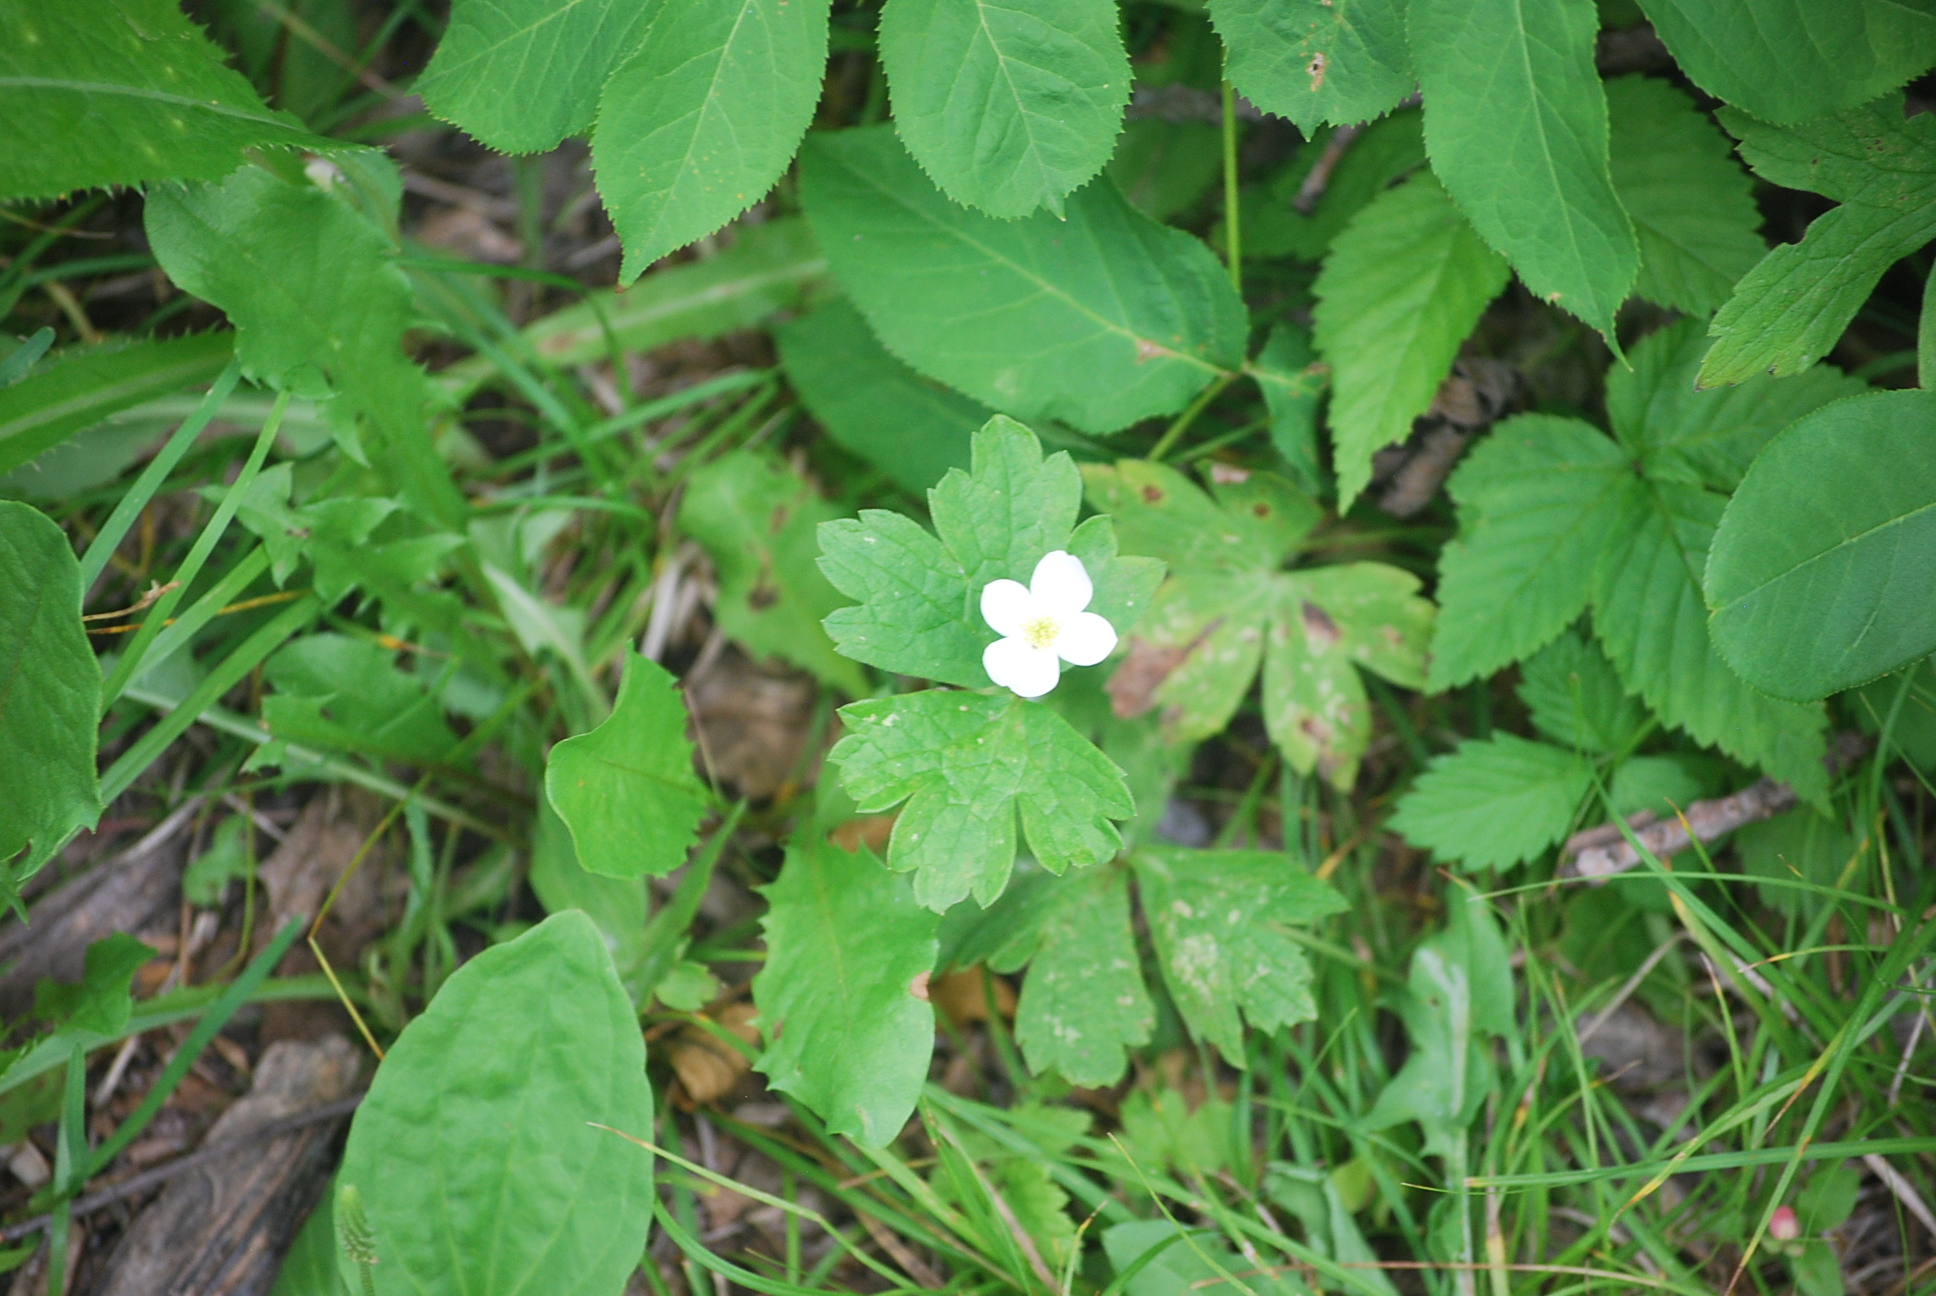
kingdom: Plantae
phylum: Tracheophyta
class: Magnoliopsida
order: Ranunculales
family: Ranunculaceae
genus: Anemonastrum
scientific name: Anemonastrum canadense
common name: Canada anemone
